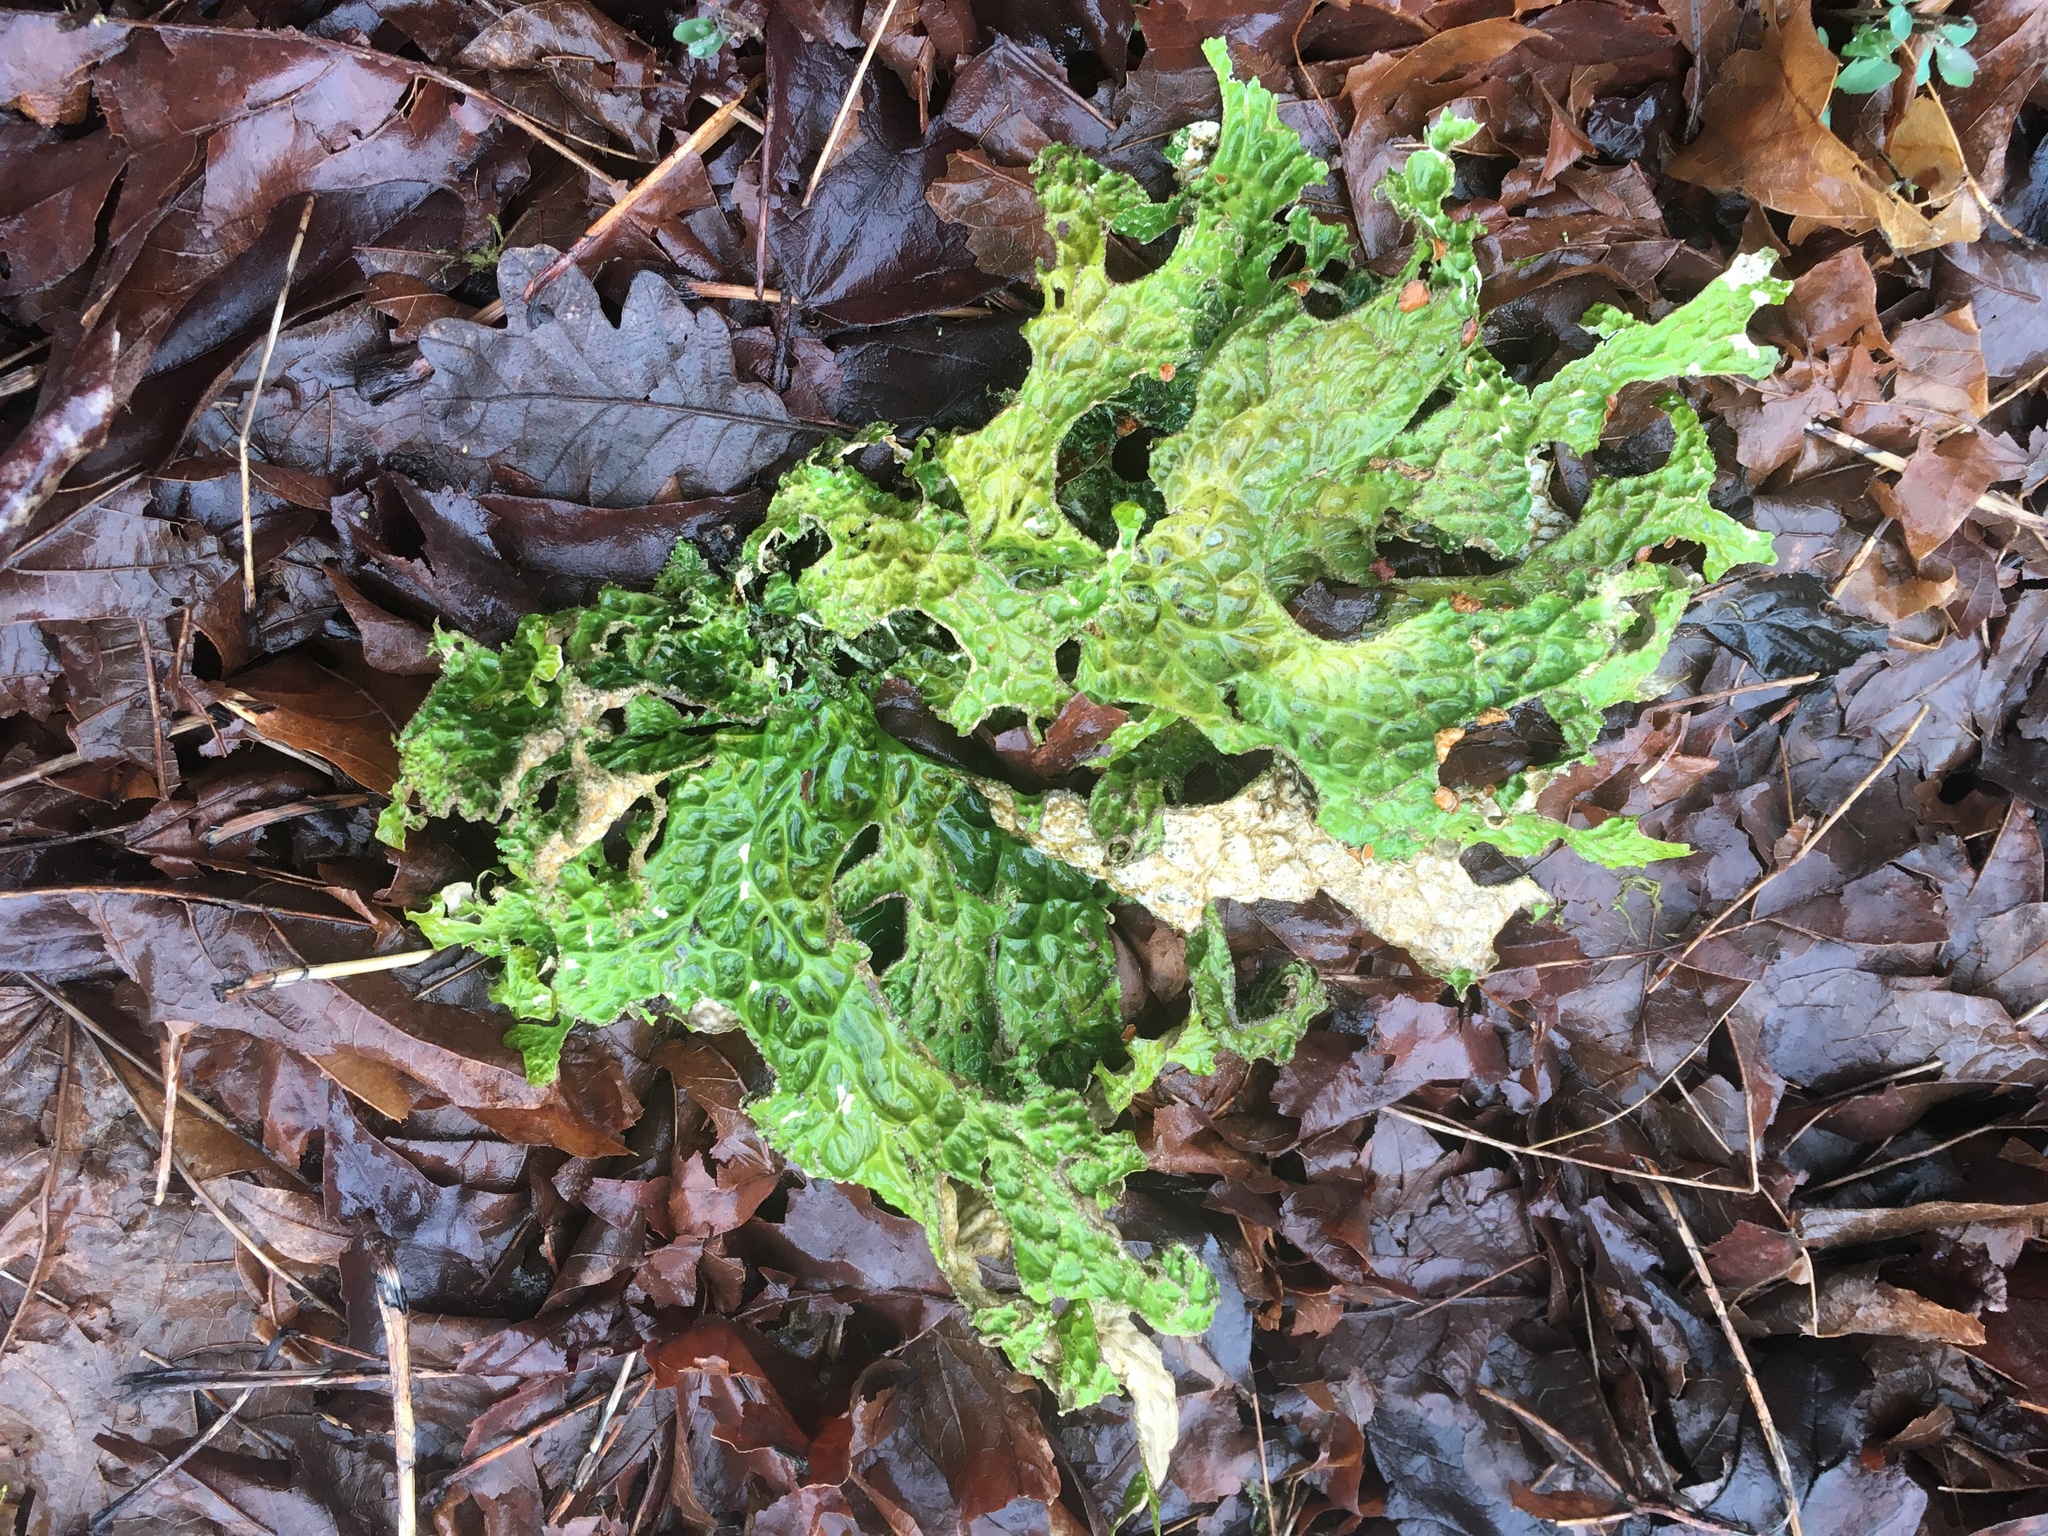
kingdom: Fungi
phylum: Ascomycota
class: Lecanoromycetes
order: Peltigerales
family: Lobariaceae
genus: Lobaria
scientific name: Lobaria pulmonaria
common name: Lungwort
